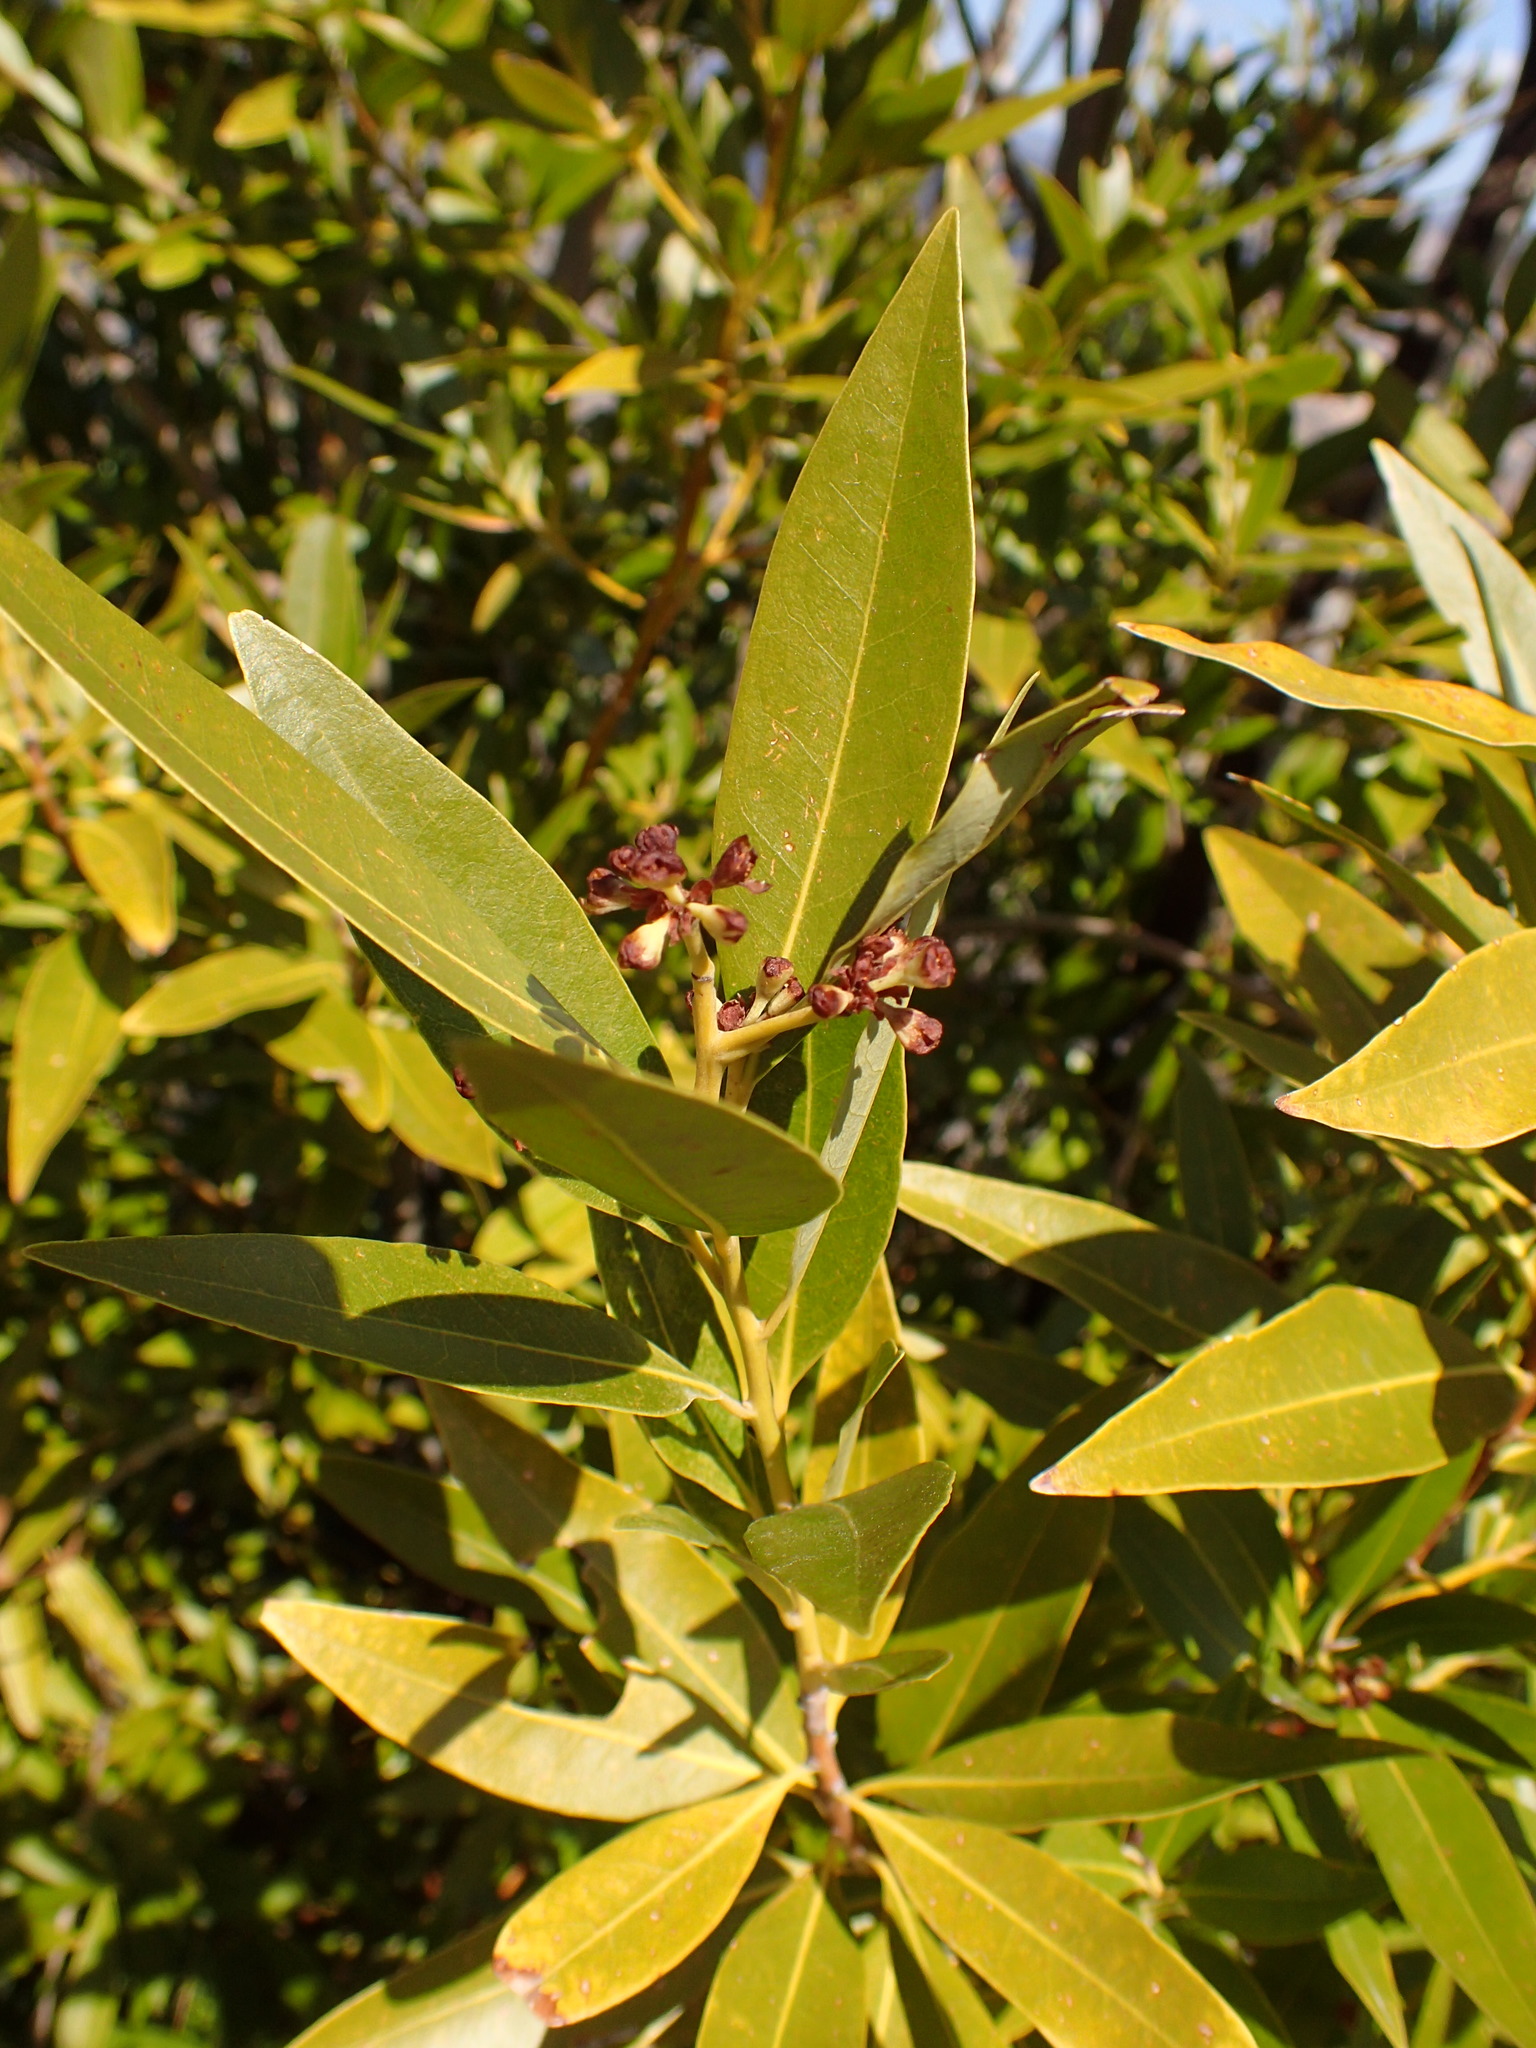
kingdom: Plantae
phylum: Tracheophyta
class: Magnoliopsida
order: Laurales
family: Lauraceae
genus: Umbellularia
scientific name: Umbellularia californica
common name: California bay
